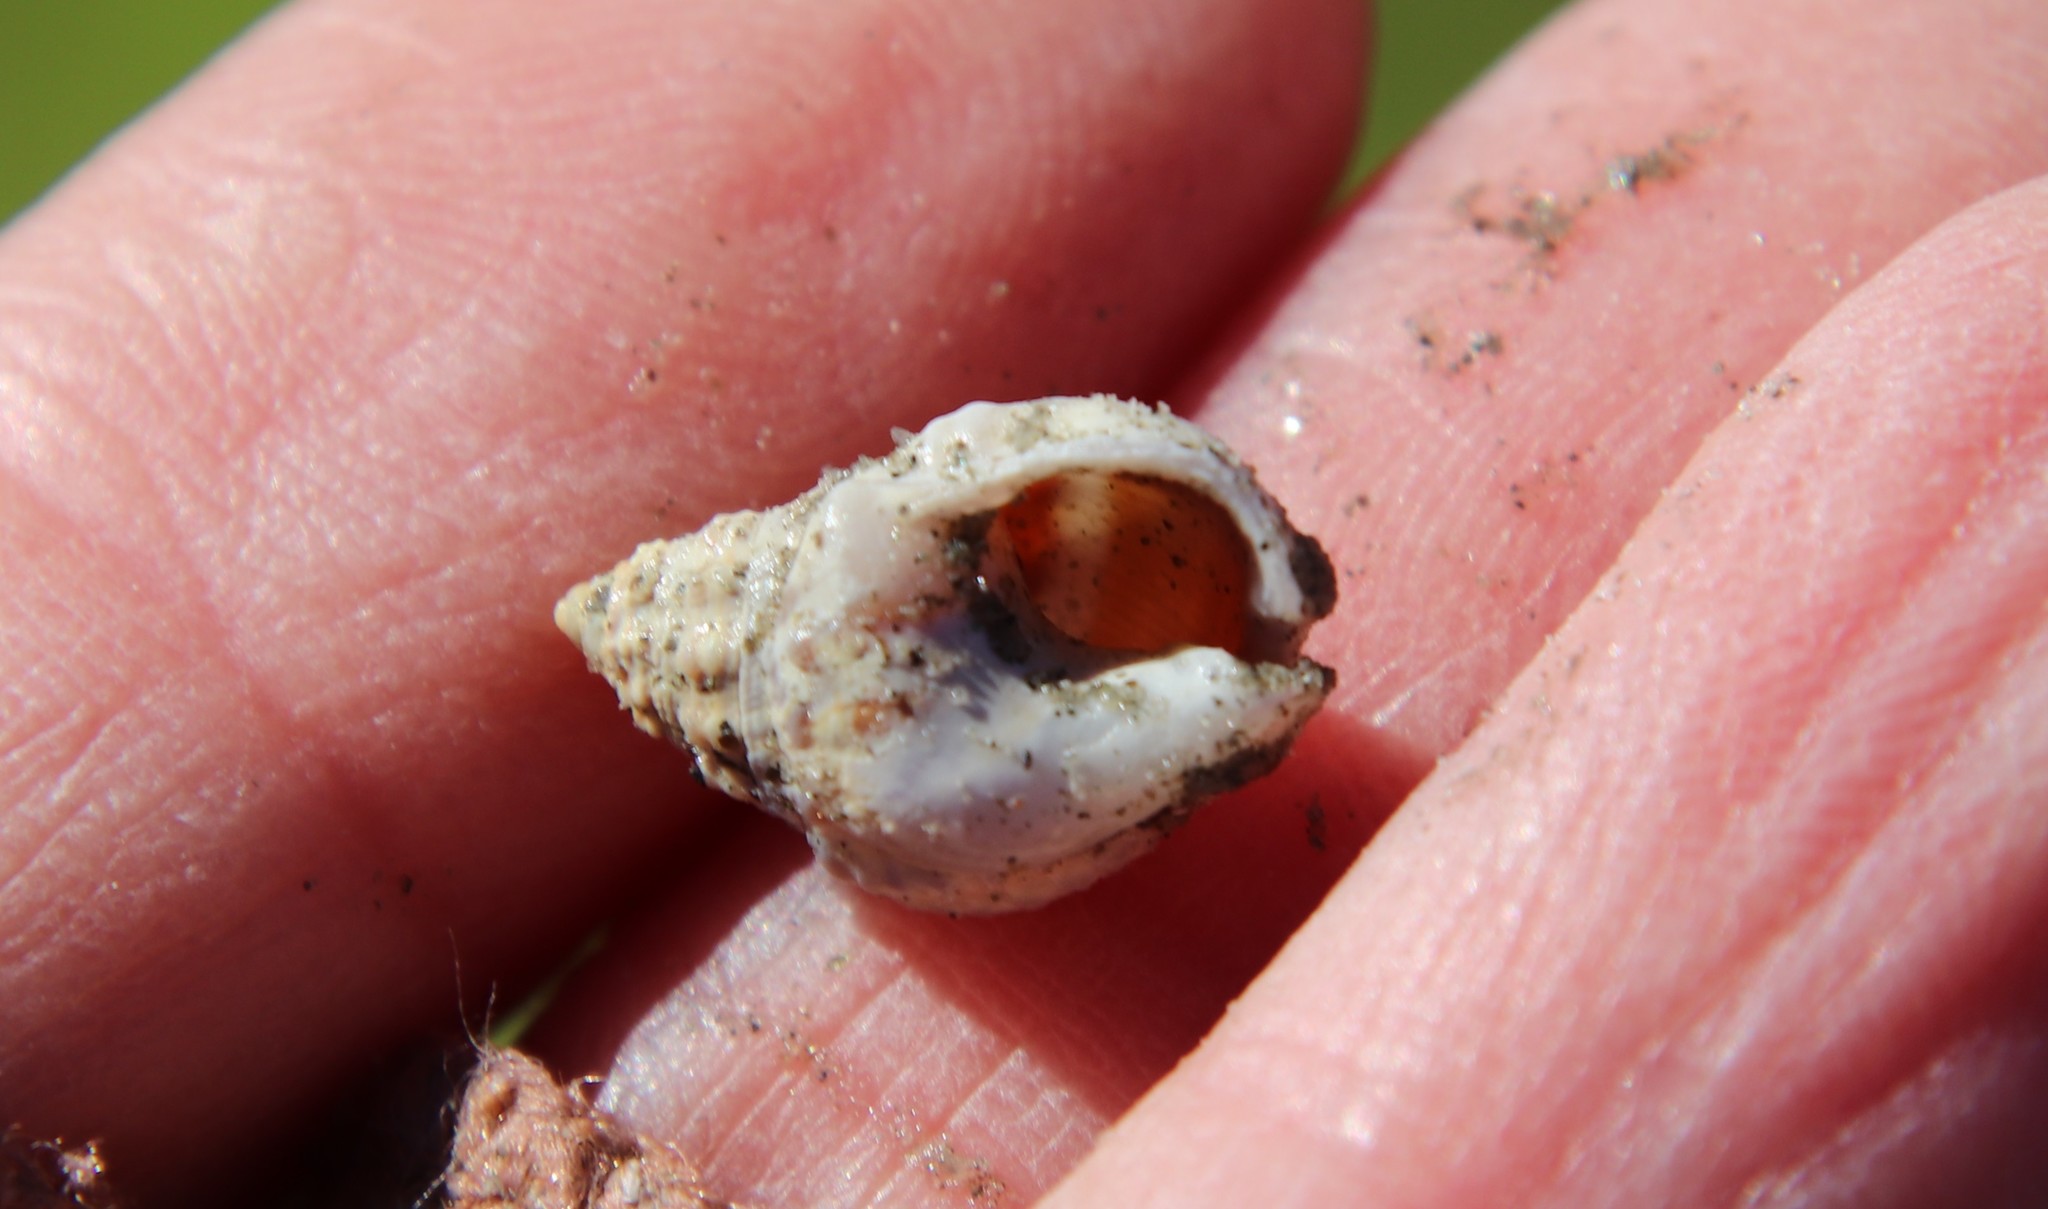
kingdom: Animalia
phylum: Mollusca
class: Gastropoda
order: Neogastropoda
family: Nassariidae
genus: Phrontis
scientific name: Phrontis tiarula
